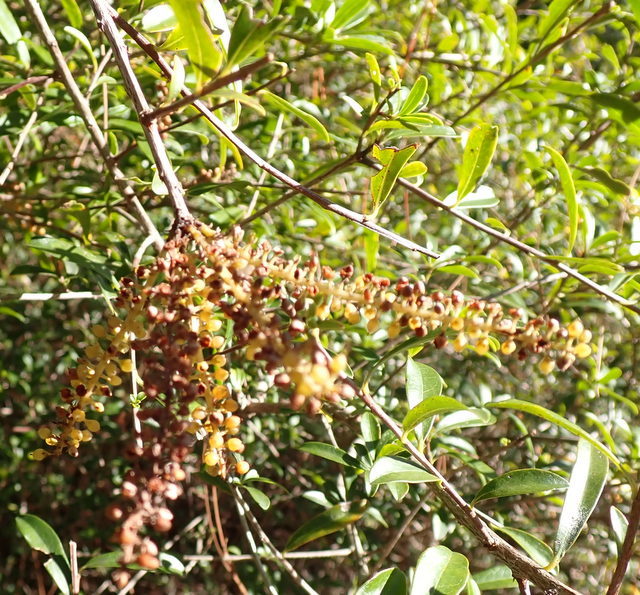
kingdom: Plantae
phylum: Tracheophyta
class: Magnoliopsida
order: Ericales
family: Cyrillaceae
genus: Cyrilla
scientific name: Cyrilla racemiflora
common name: Black titi
